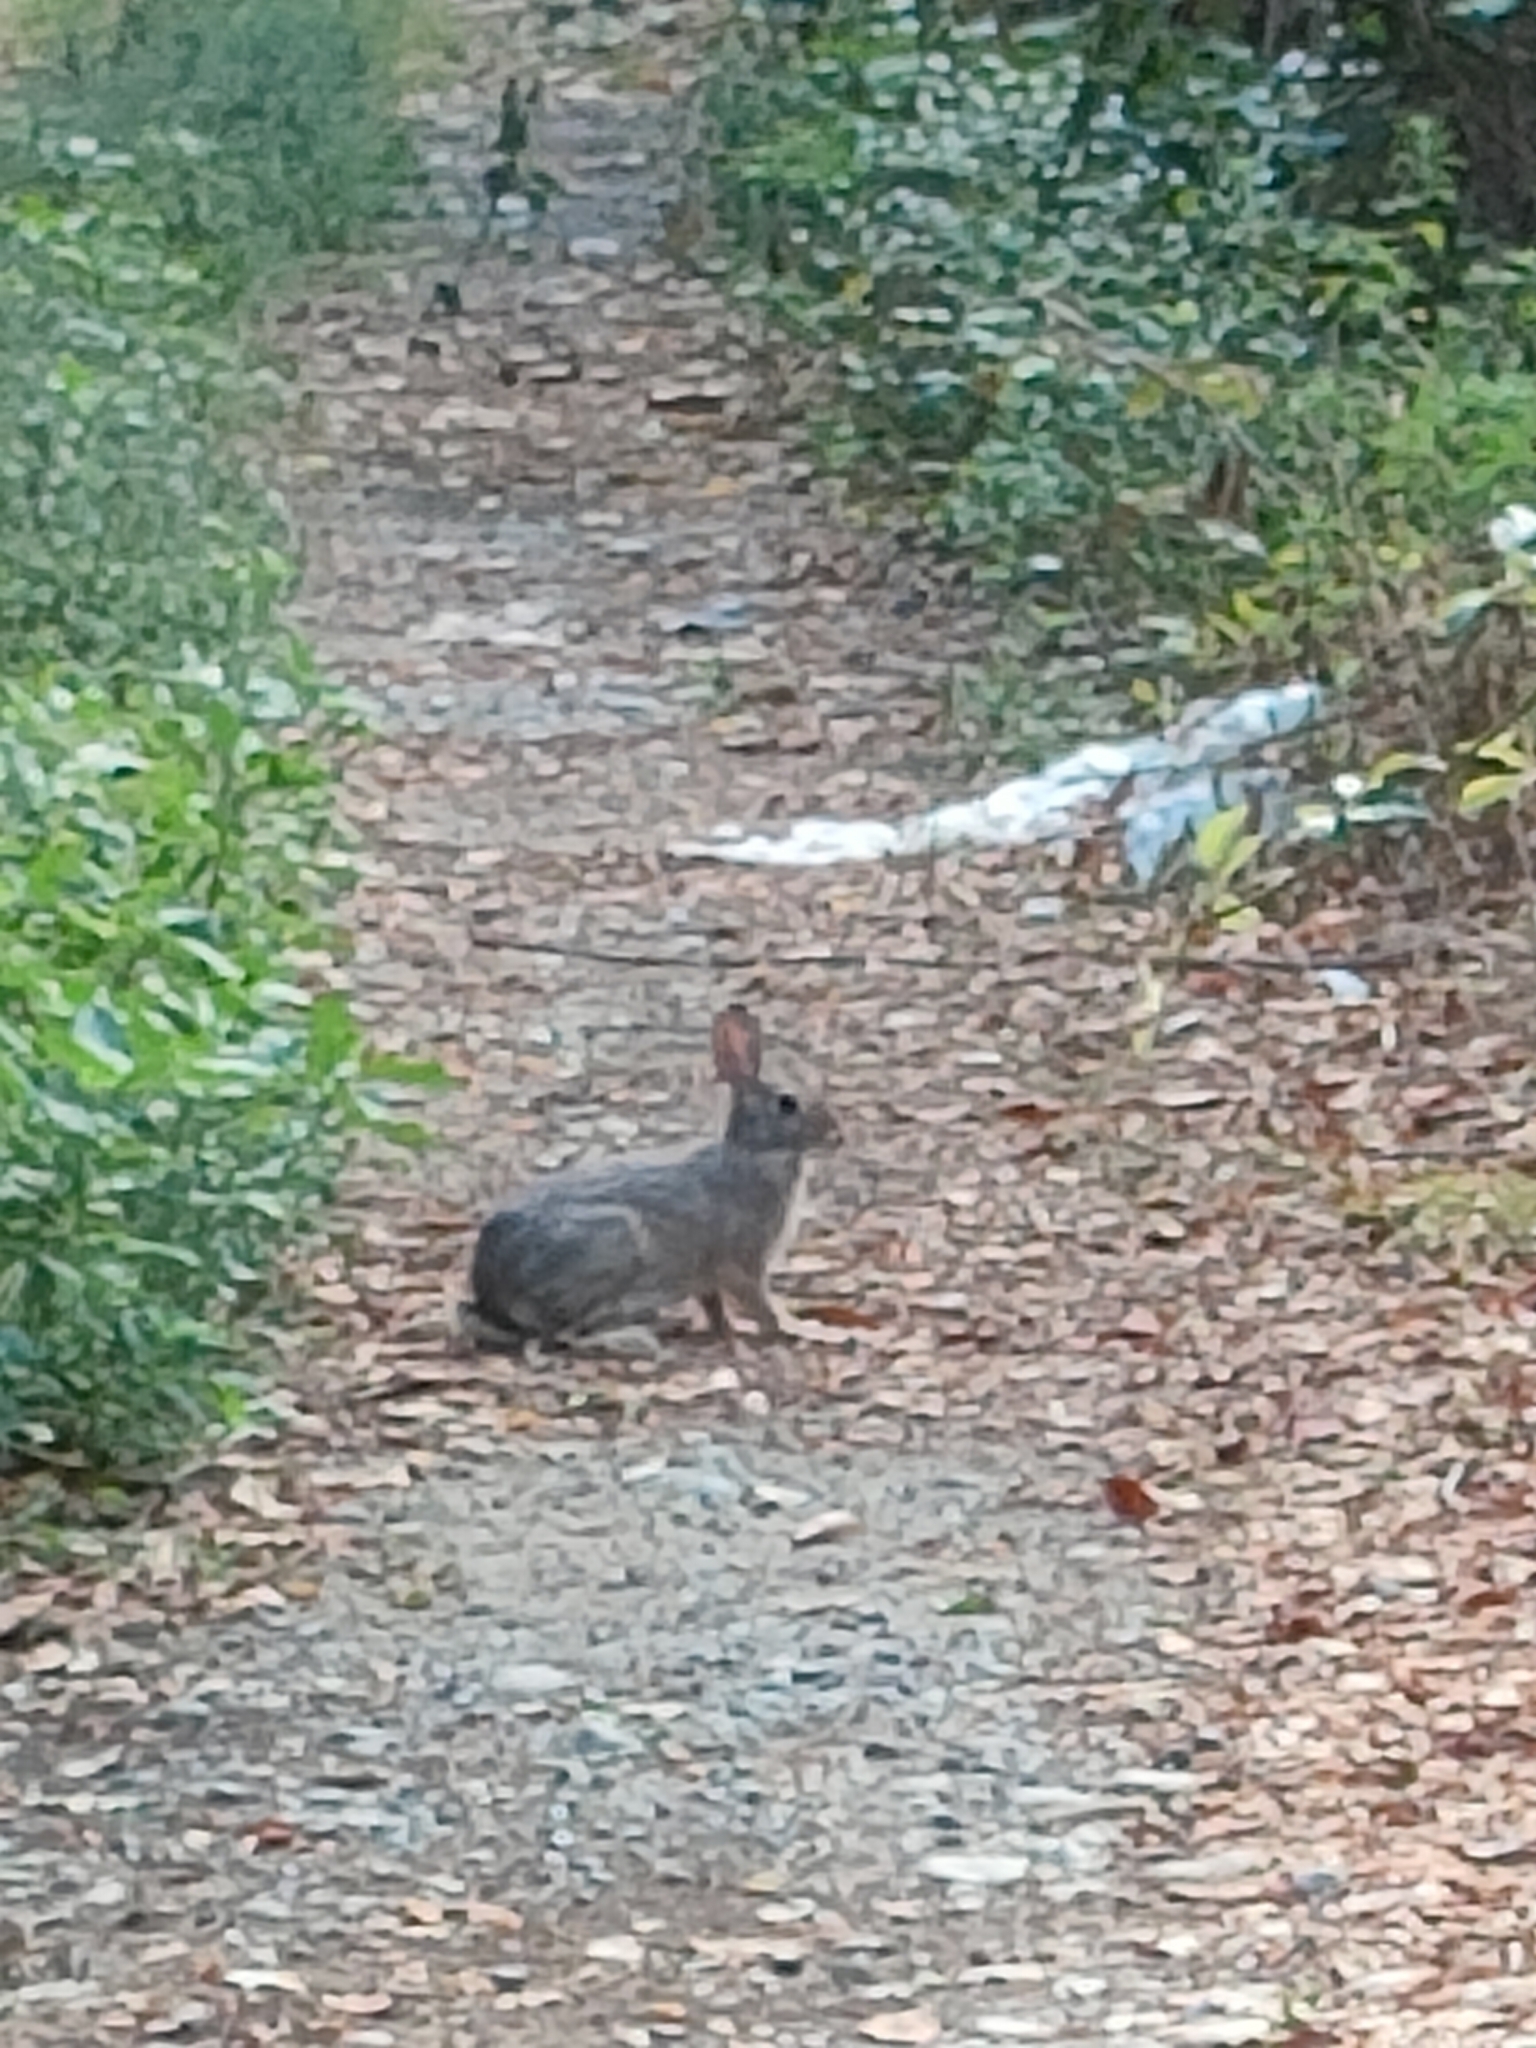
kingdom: Animalia
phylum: Chordata
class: Mammalia
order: Lagomorpha
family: Leporidae
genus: Sylvilagus
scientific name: Sylvilagus floridanus
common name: Eastern cottontail
